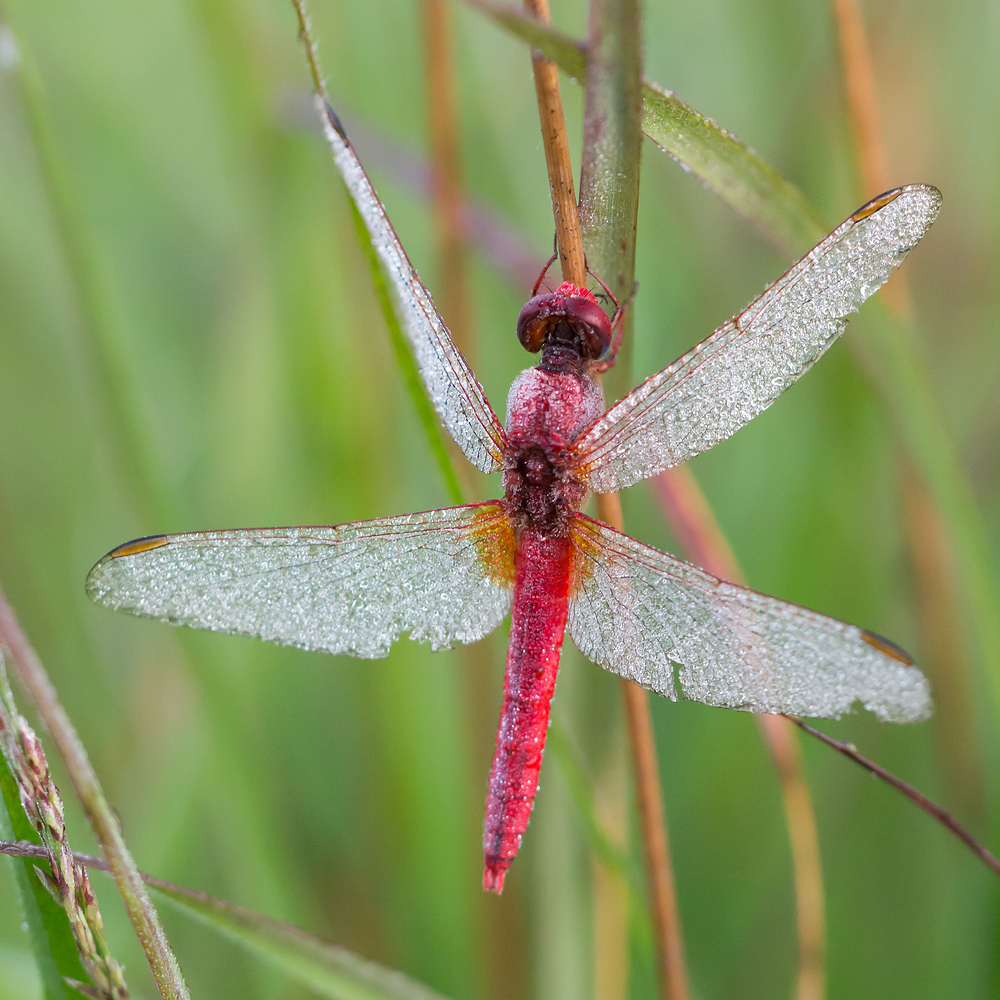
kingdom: Animalia
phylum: Arthropoda
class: Insecta
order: Odonata
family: Libellulidae
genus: Crocothemis
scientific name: Crocothemis erythraea
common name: Scarlet dragonfly
